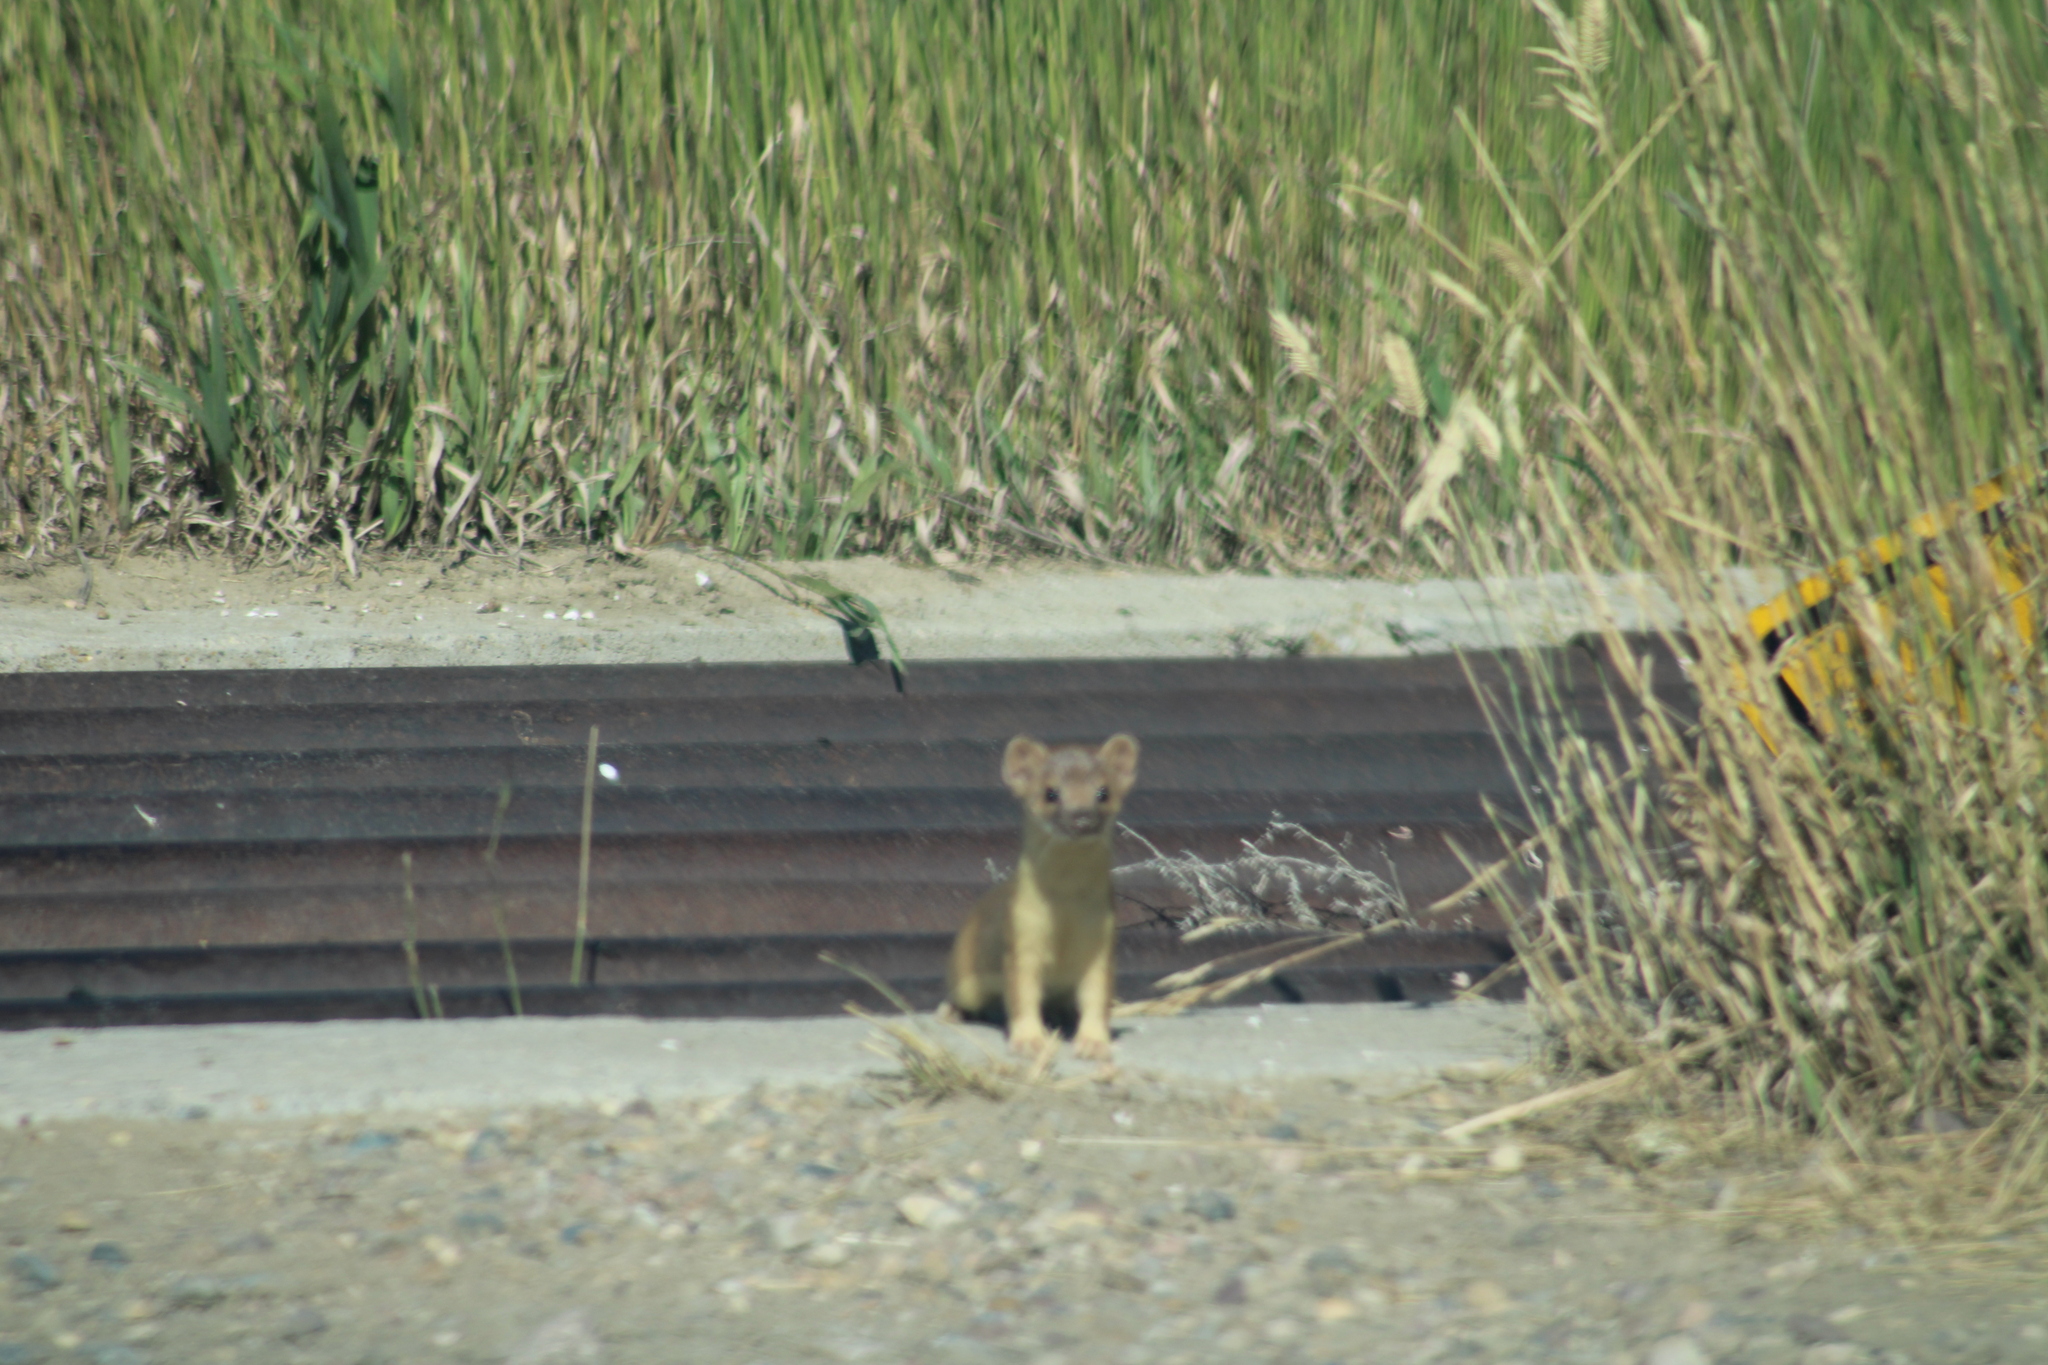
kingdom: Animalia
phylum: Chordata
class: Mammalia
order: Carnivora
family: Mustelidae
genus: Mustela
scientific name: Mustela
